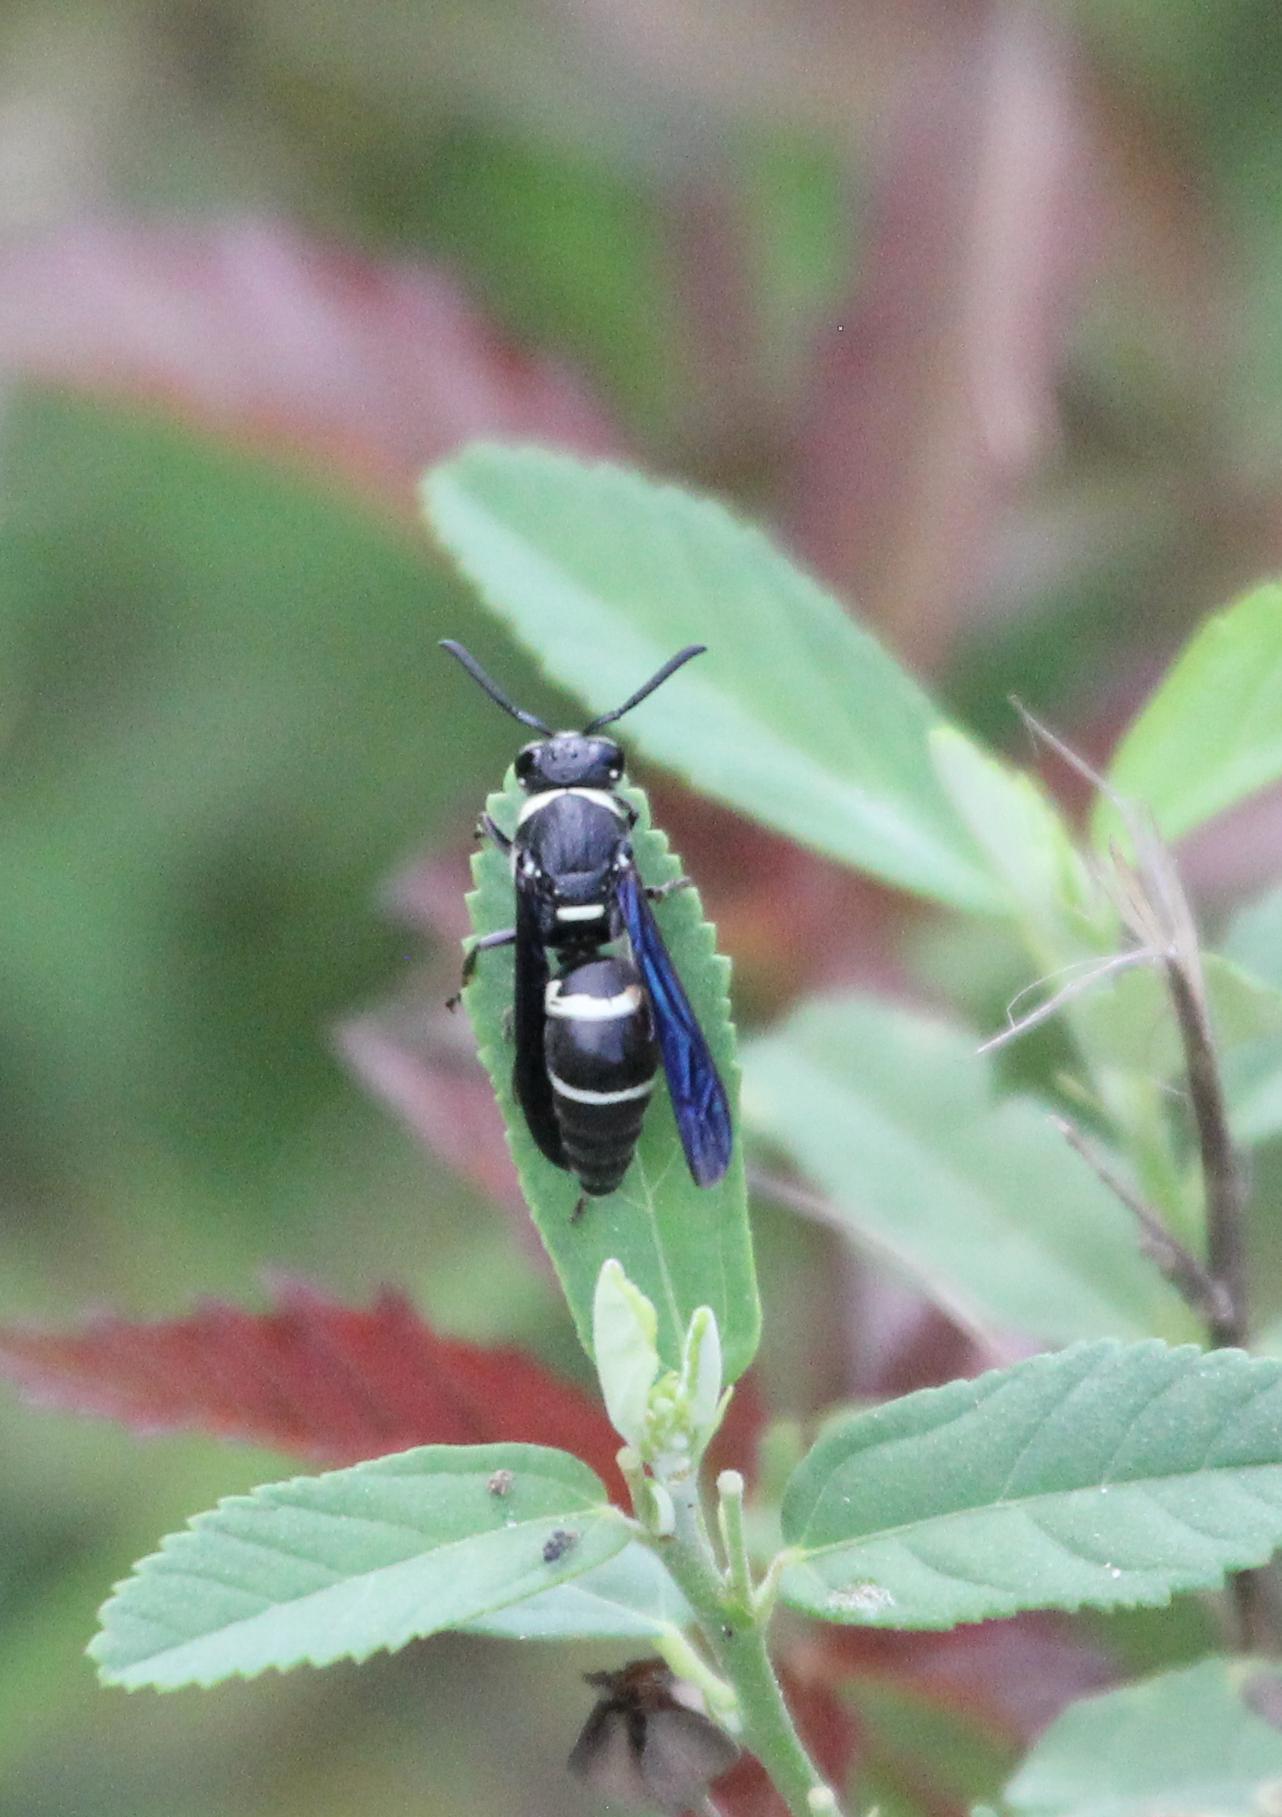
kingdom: Animalia
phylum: Arthropoda
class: Insecta
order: Hymenoptera
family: Eumenidae
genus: Euodynerus
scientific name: Euodynerus megaera
